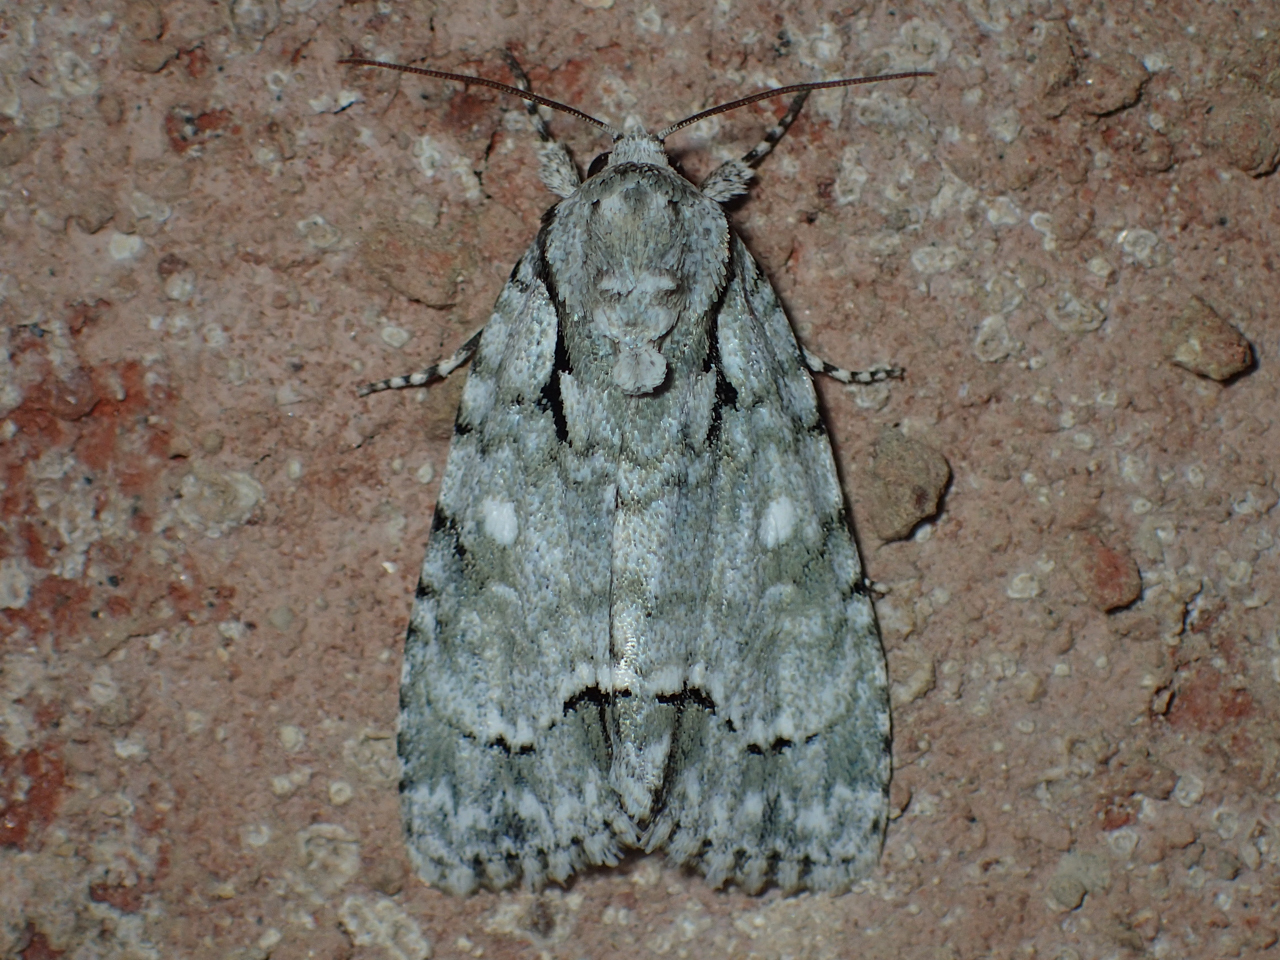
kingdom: Animalia
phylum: Arthropoda
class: Insecta
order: Lepidoptera
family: Noctuidae
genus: Acronicta
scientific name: Acronicta vinnula
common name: Delightful dagger
